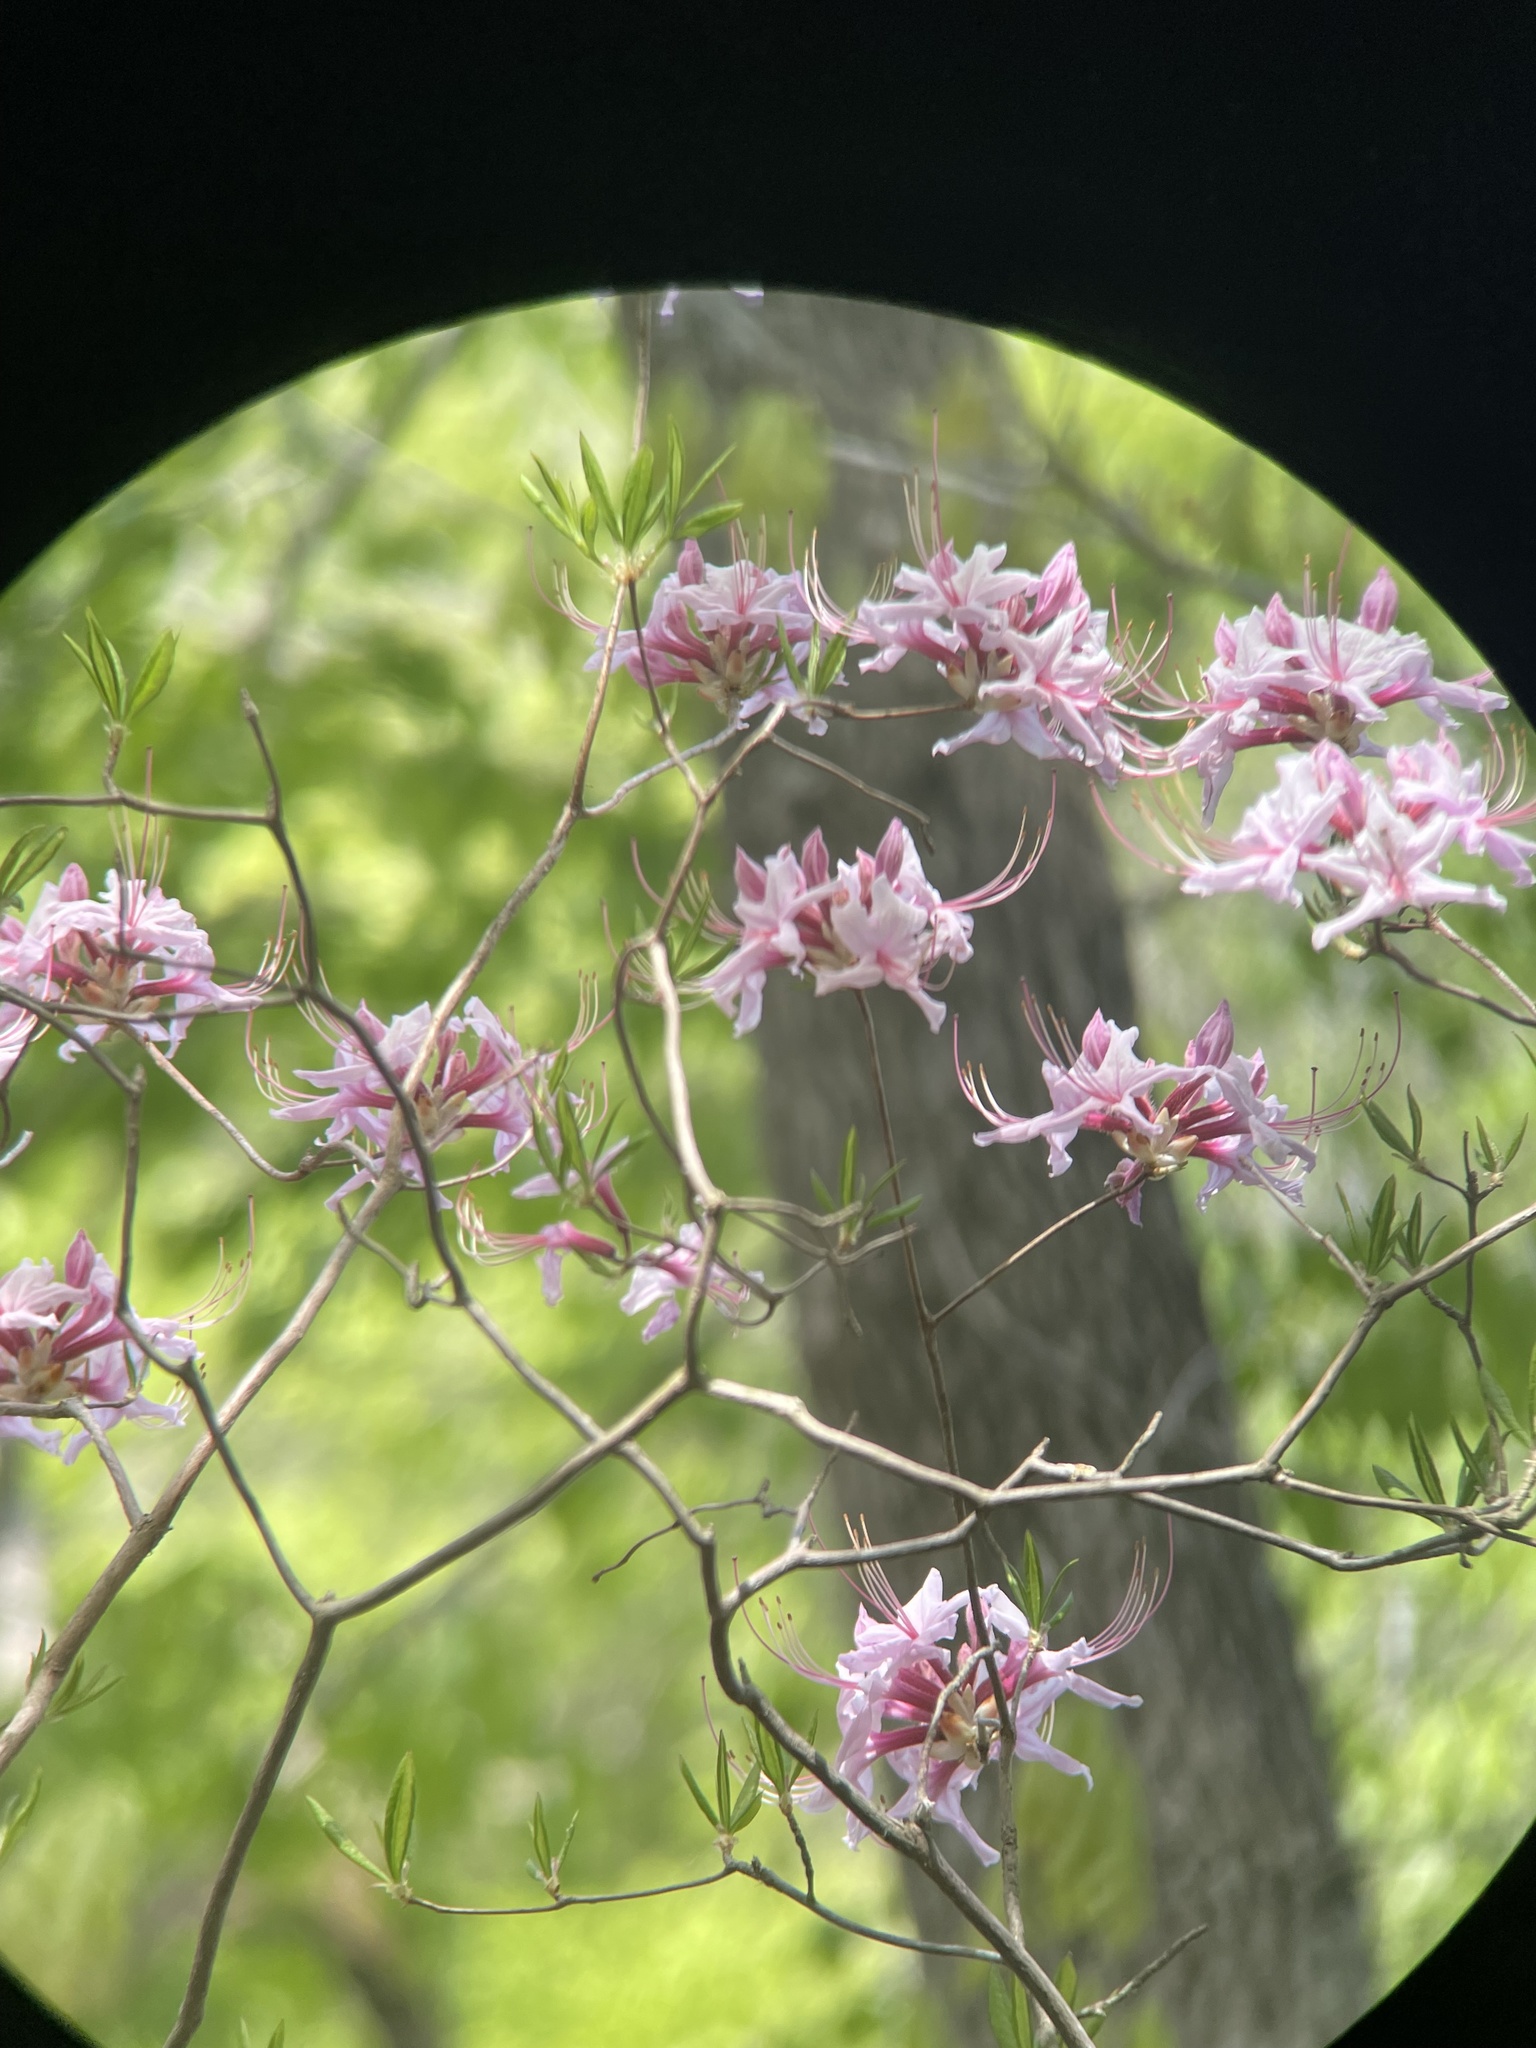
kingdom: Plantae
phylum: Tracheophyta
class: Magnoliopsida
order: Ericales
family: Ericaceae
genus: Rhododendron
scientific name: Rhododendron periclymenoides
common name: Election-pink
